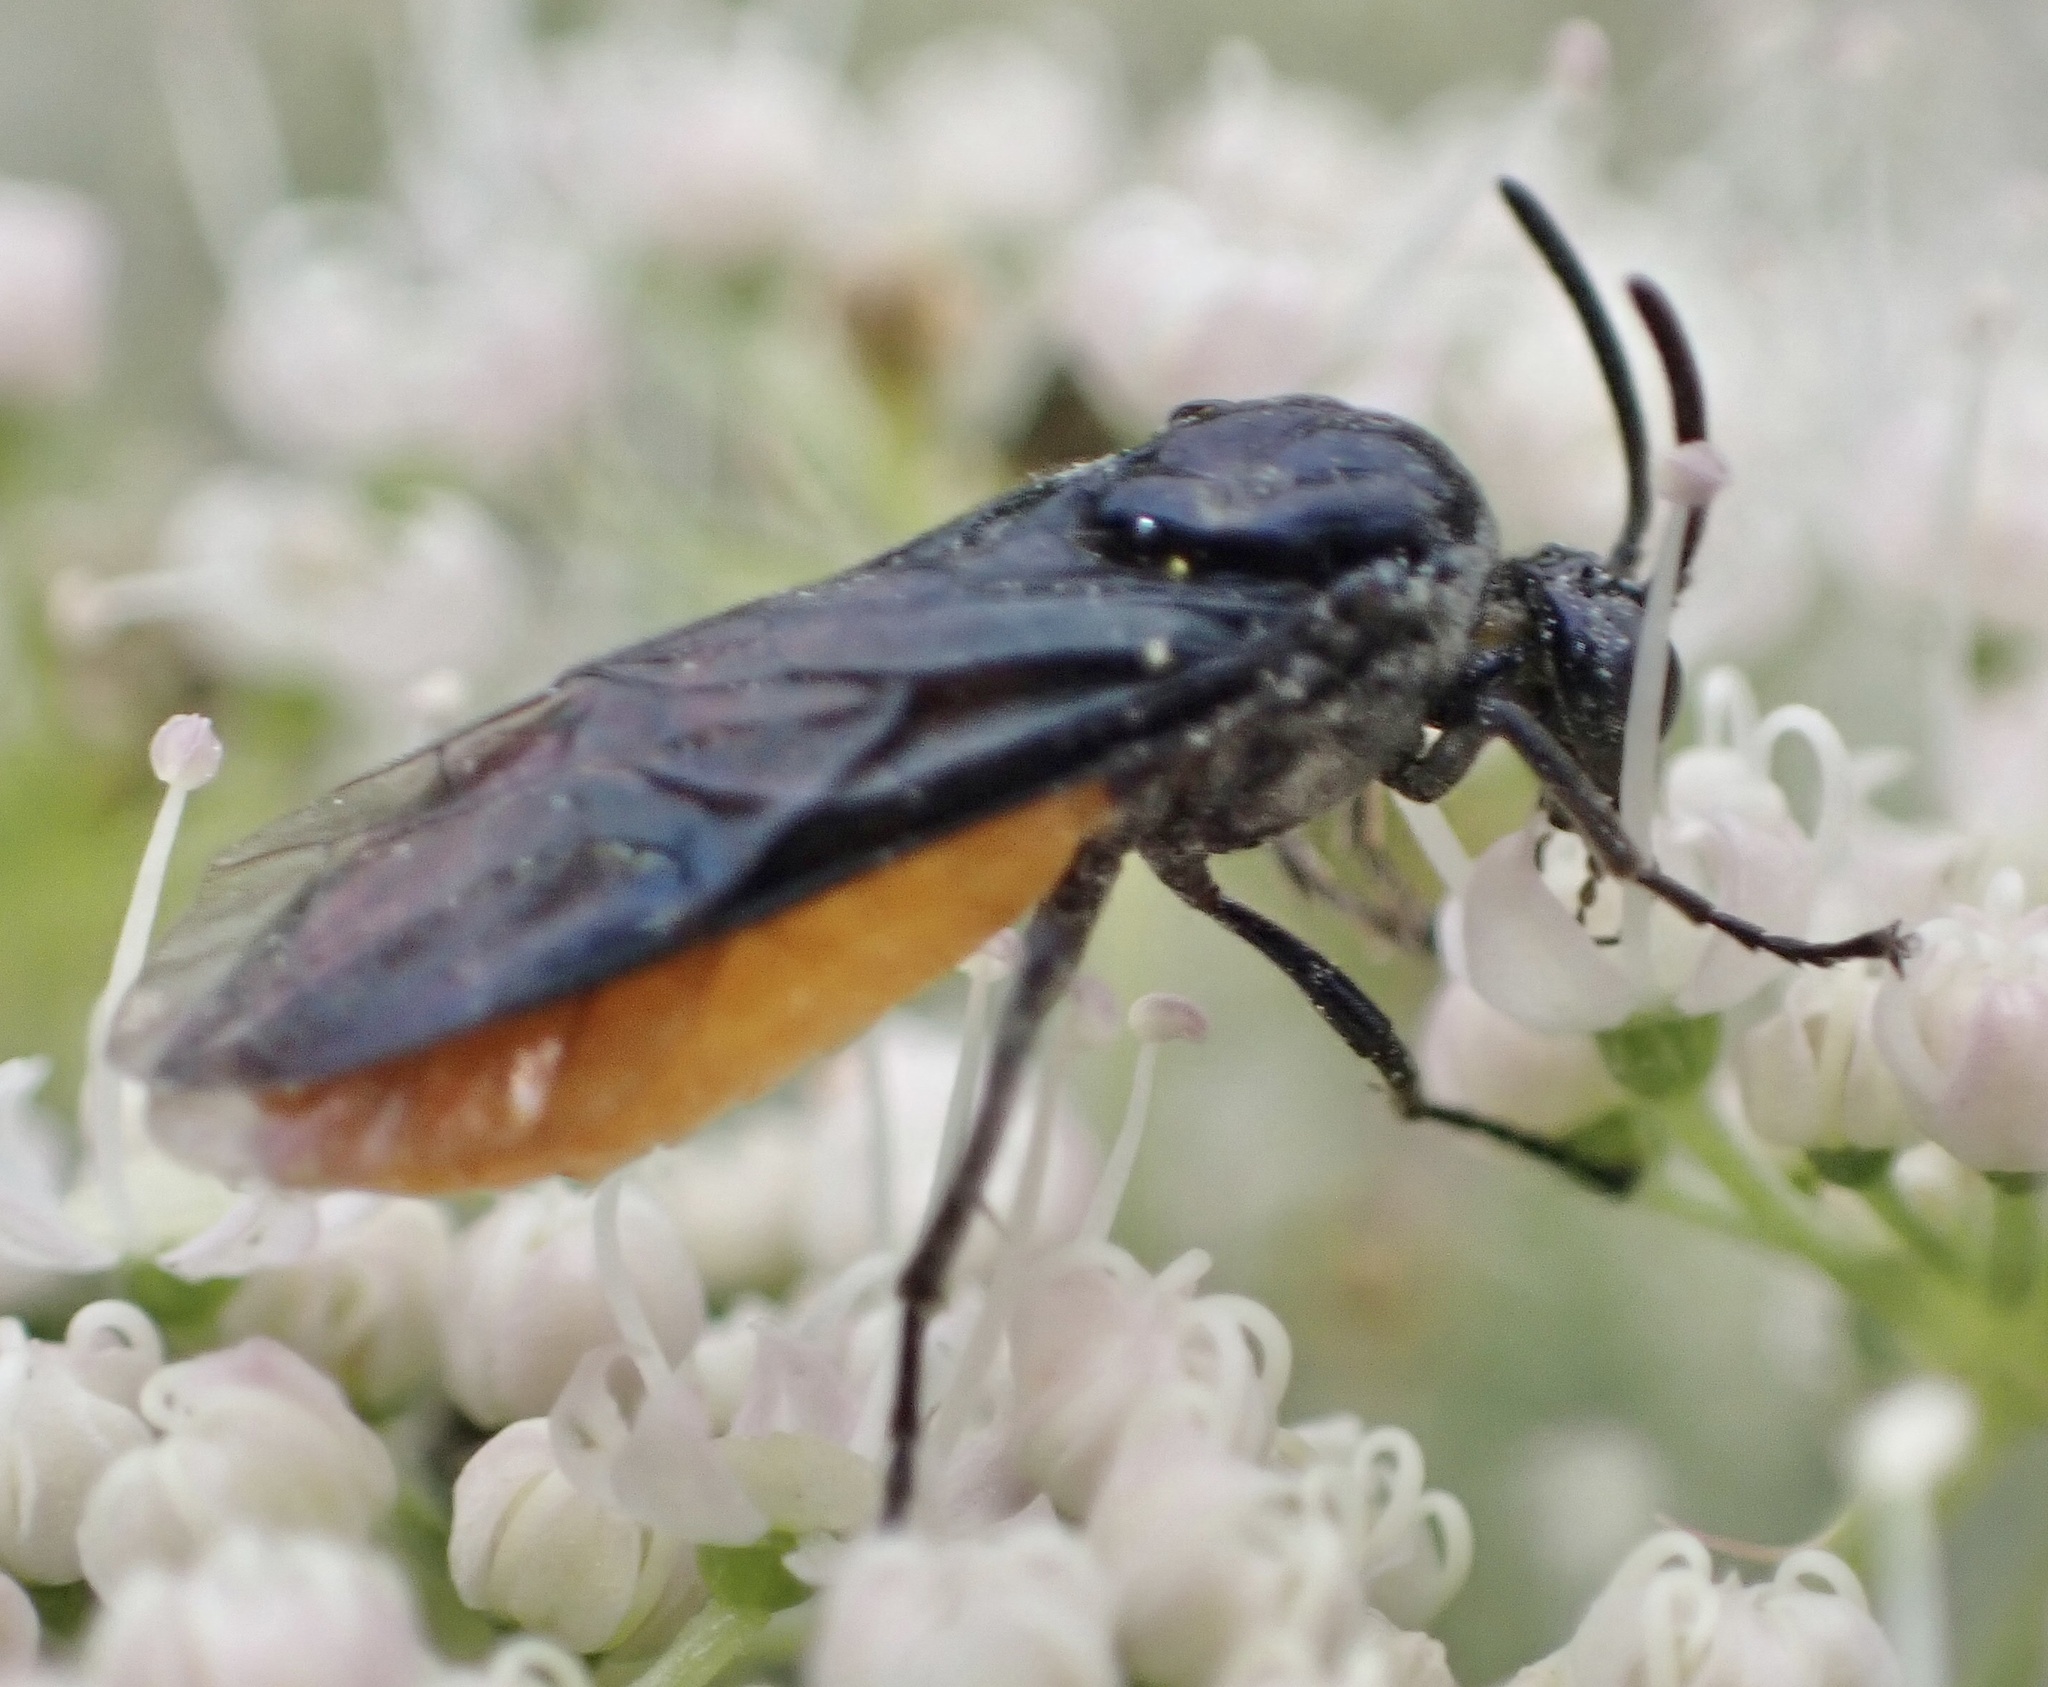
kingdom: Animalia
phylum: Arthropoda
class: Insecta
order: Hymenoptera
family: Argidae
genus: Arge
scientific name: Arge pagana
